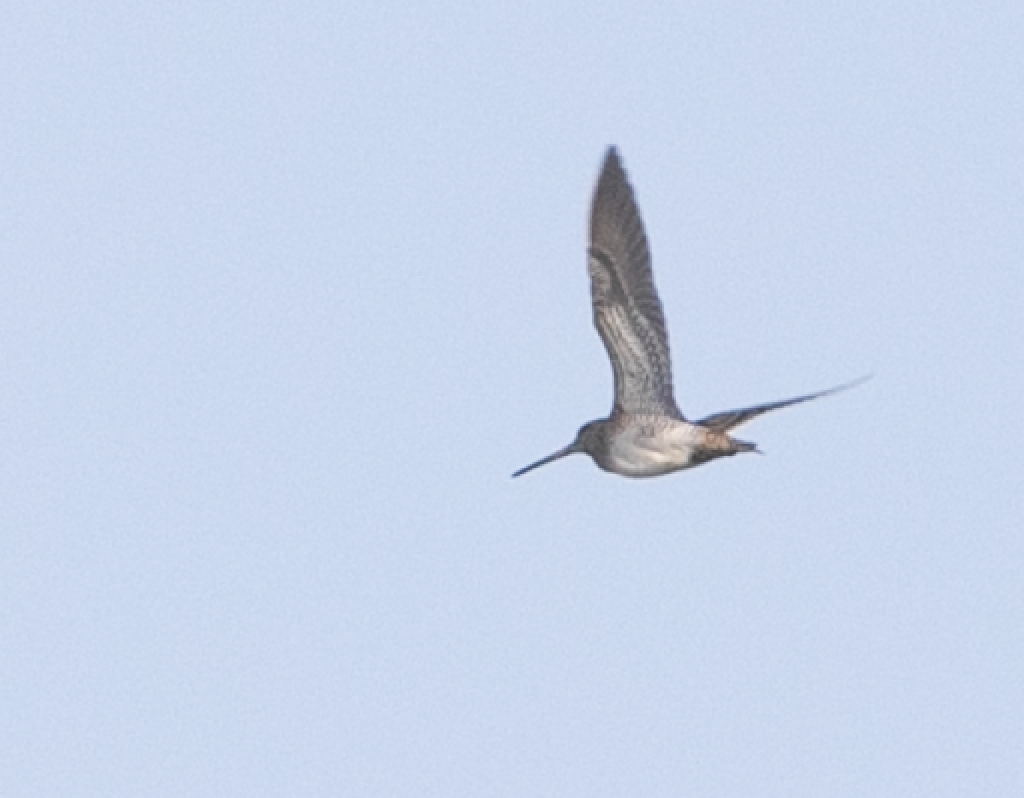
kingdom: Animalia
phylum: Chordata
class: Aves
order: Charadriiformes
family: Scolopacidae
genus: Gallinago
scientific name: Gallinago gallinago
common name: Common snipe
